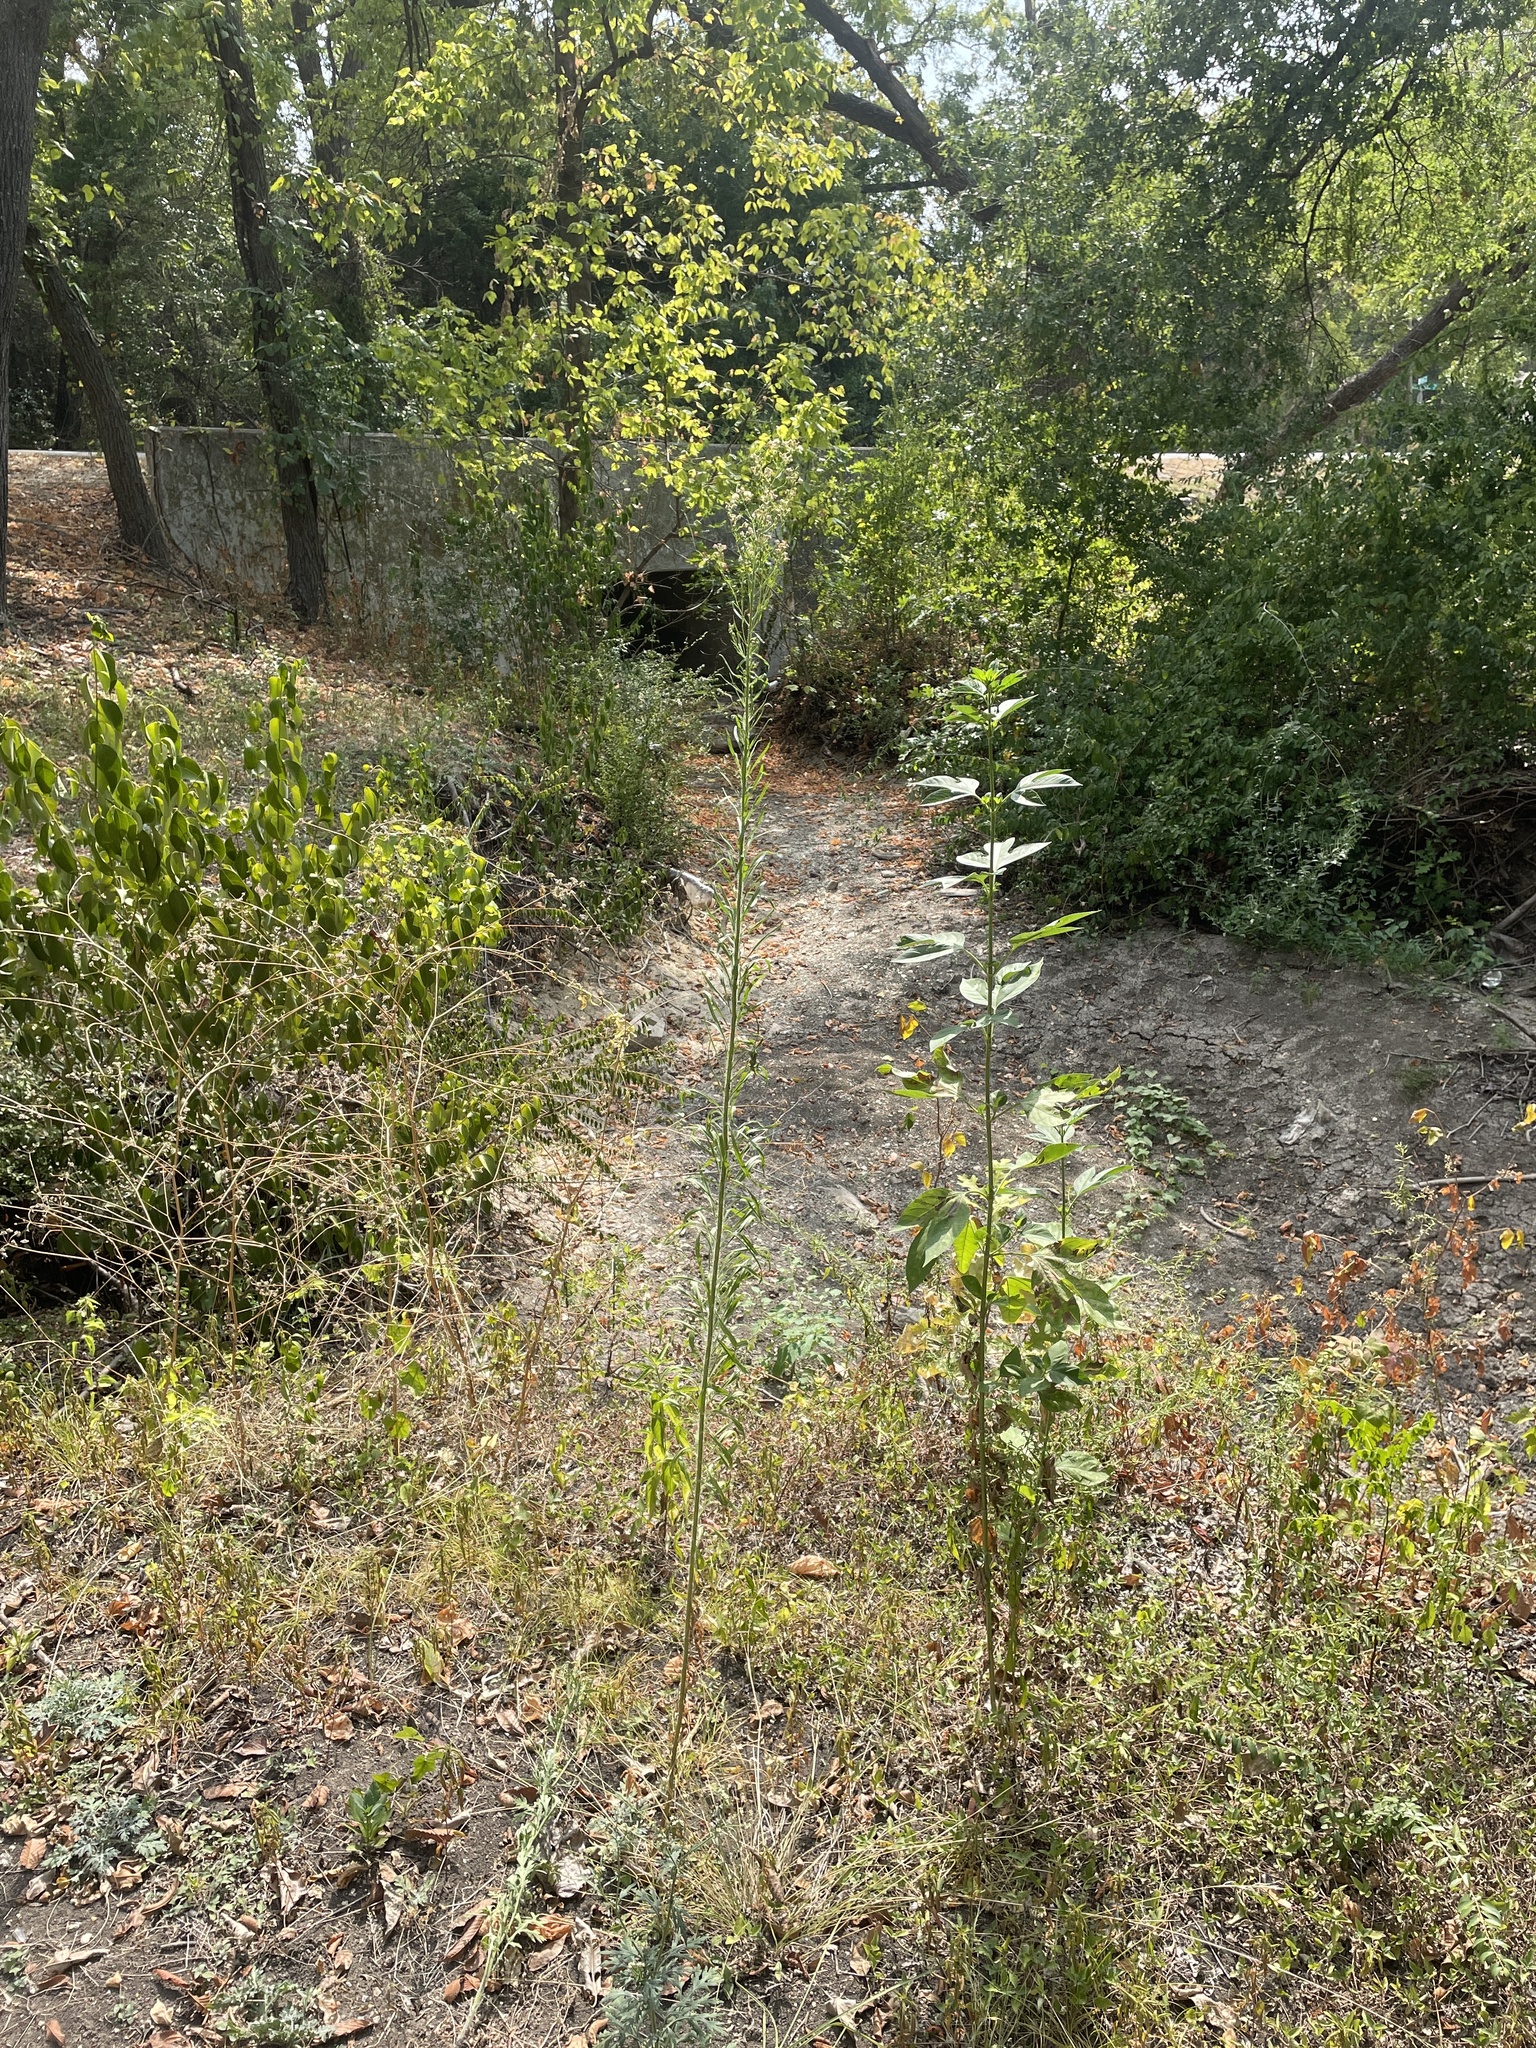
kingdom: Plantae
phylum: Tracheophyta
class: Magnoliopsida
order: Asterales
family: Asteraceae
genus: Erigeron
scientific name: Erigeron canadensis
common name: Canadian fleabane
